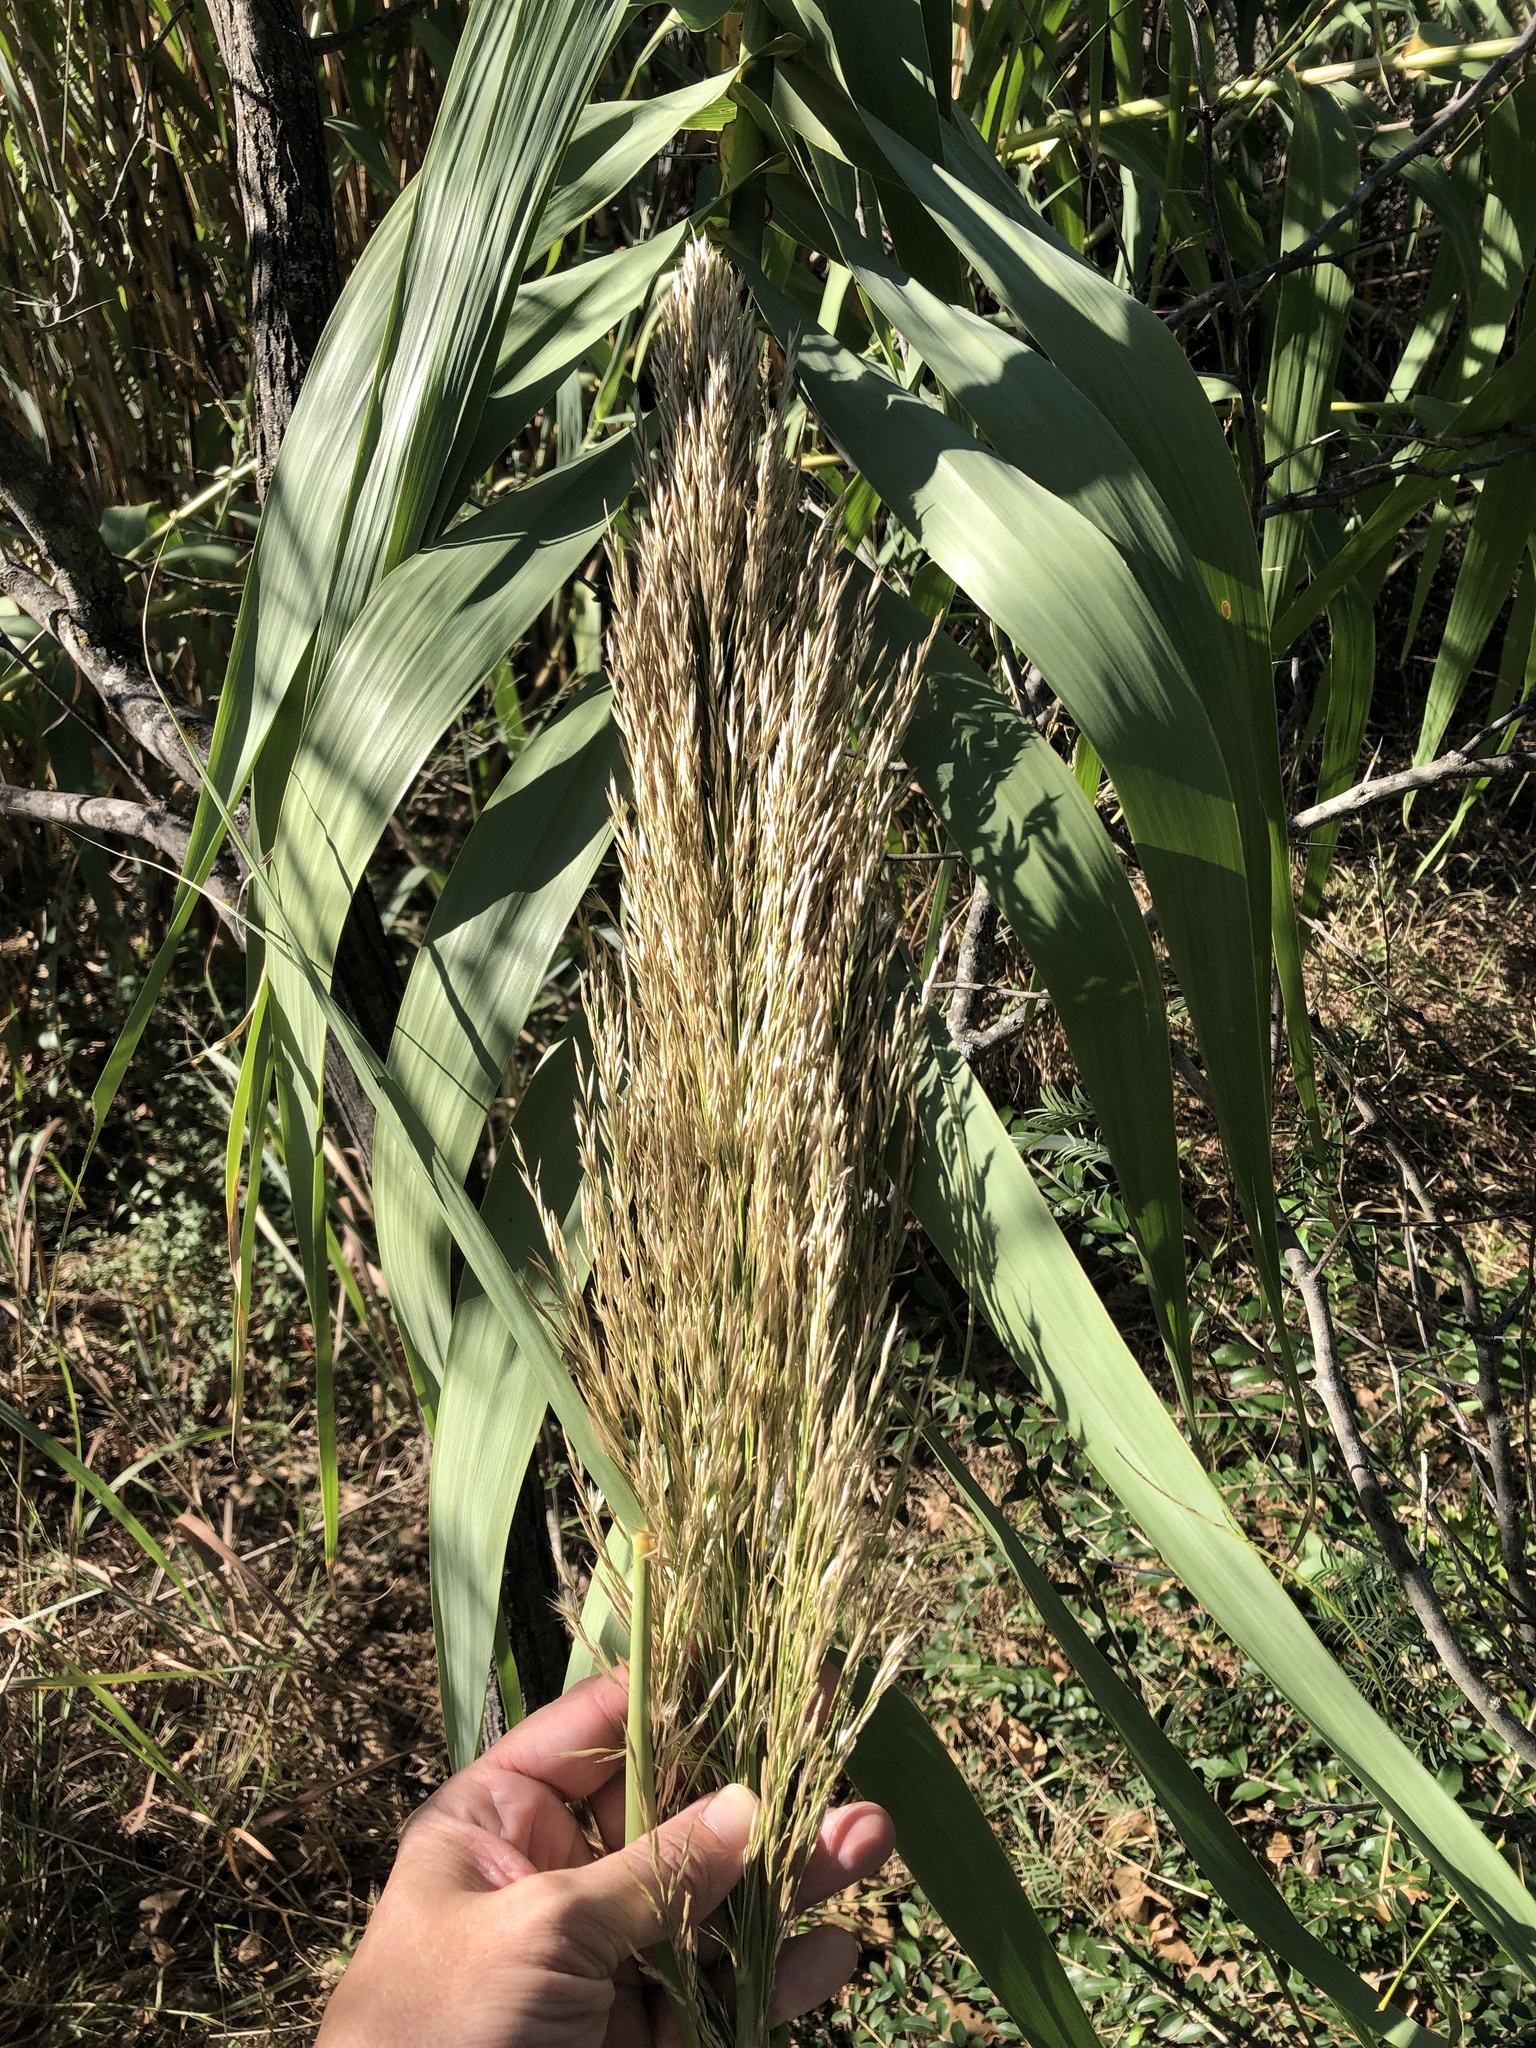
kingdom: Plantae
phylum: Tracheophyta
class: Liliopsida
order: Poales
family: Poaceae
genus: Arundo
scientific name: Arundo donax
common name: Giant reed
